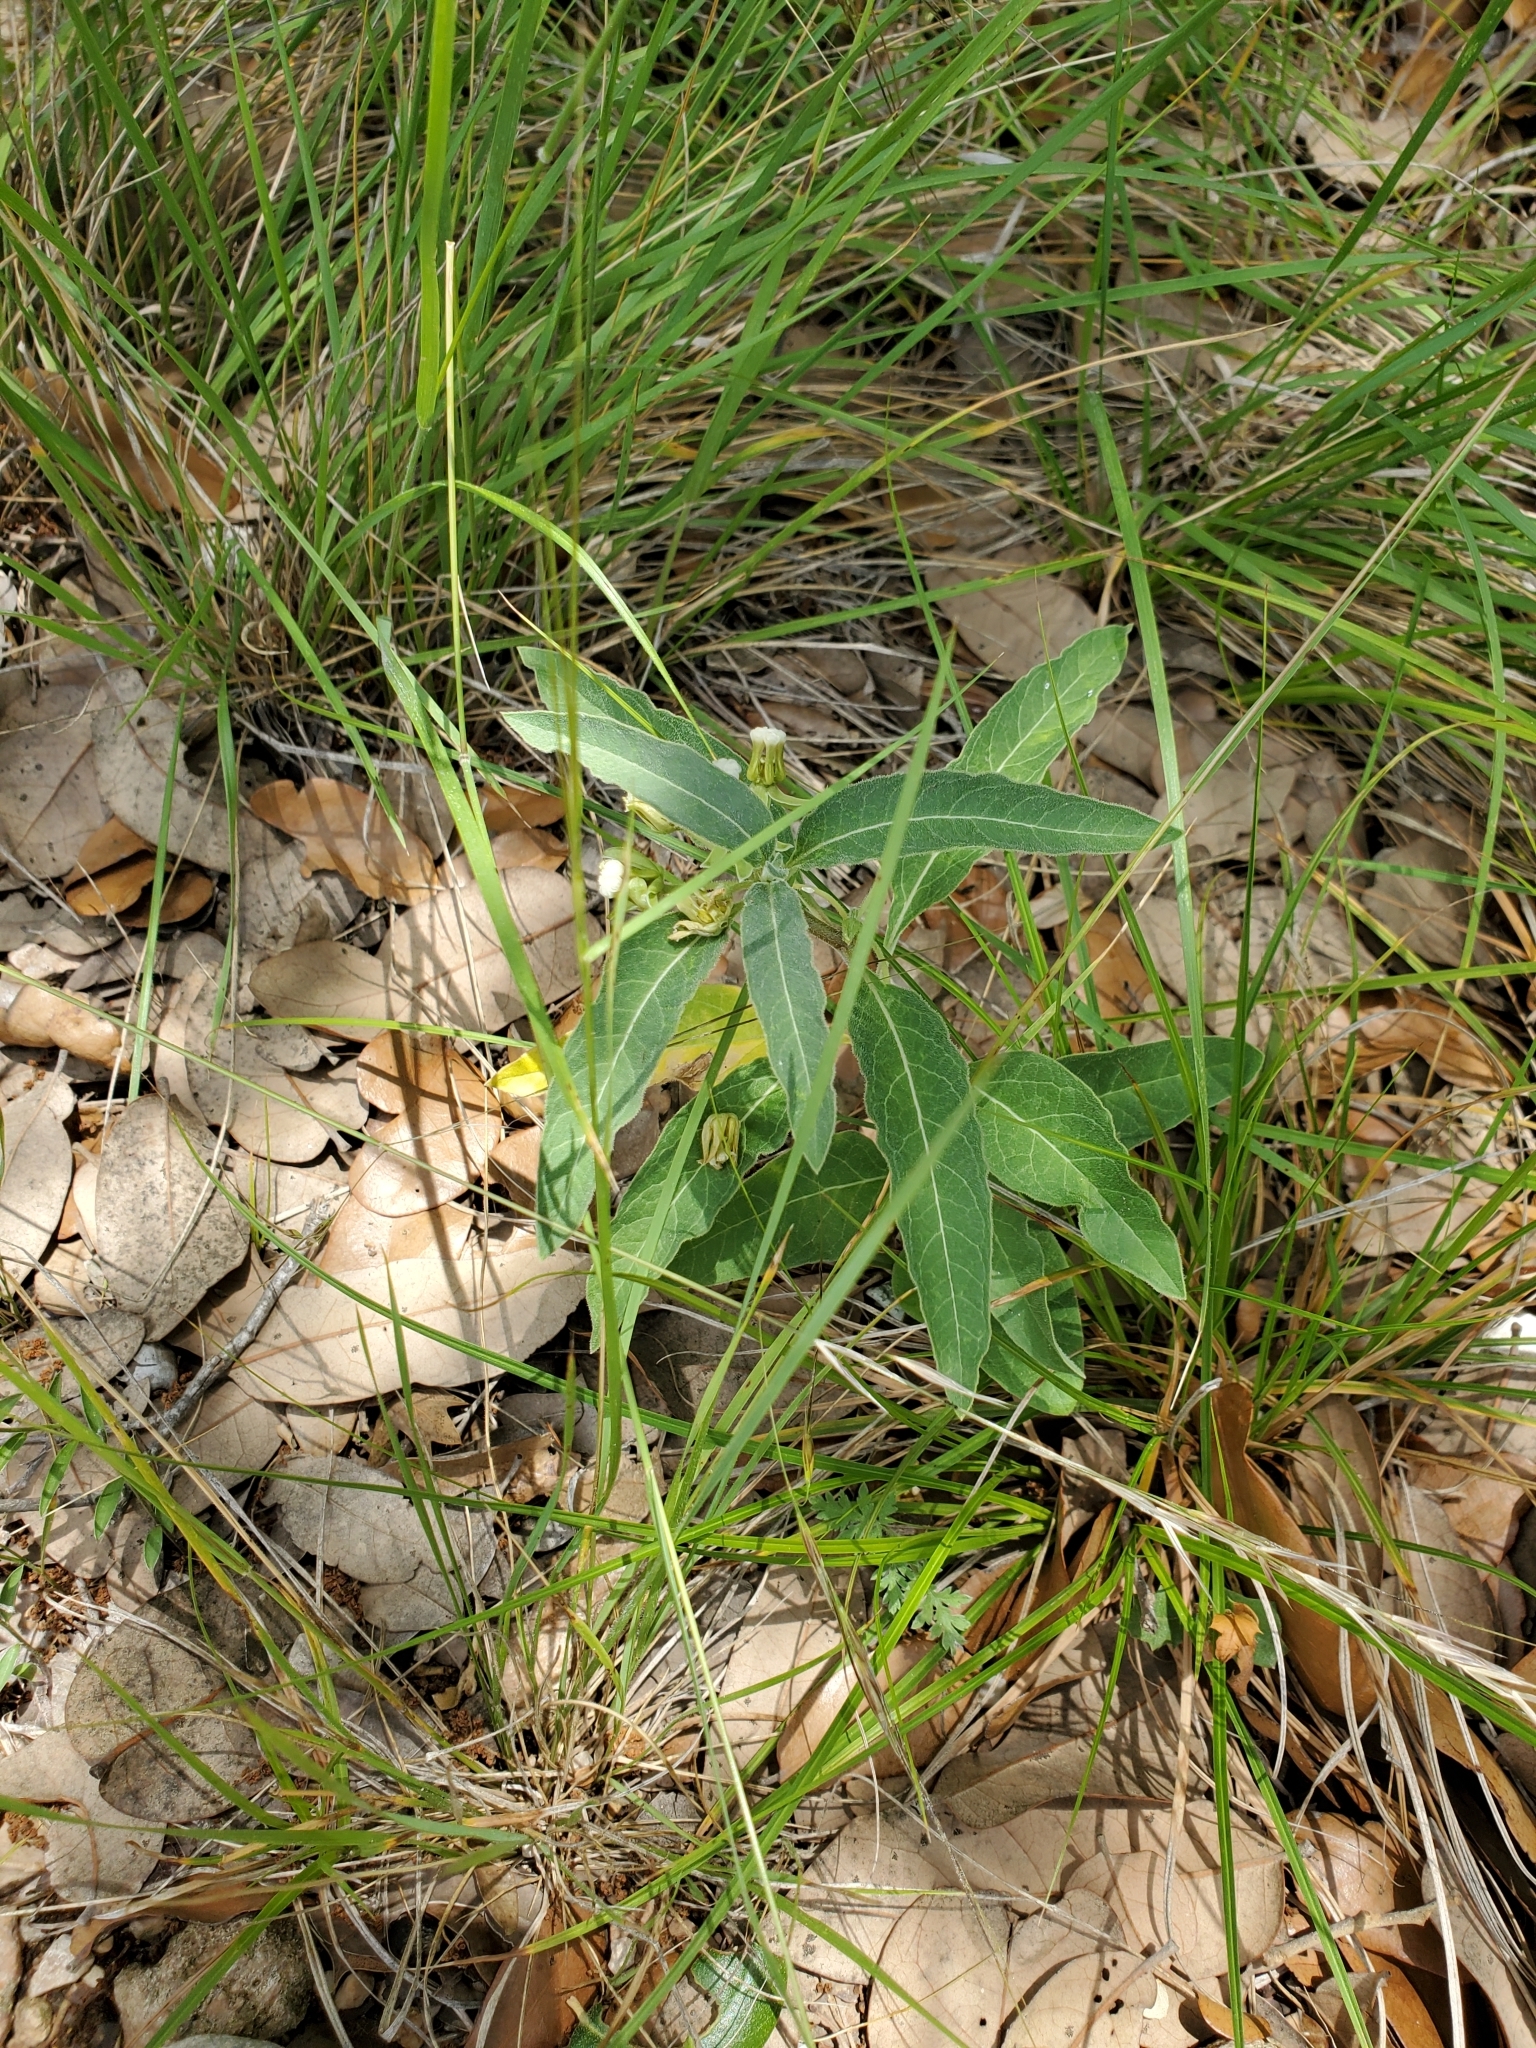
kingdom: Plantae
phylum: Tracheophyta
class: Magnoliopsida
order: Gentianales
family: Apocynaceae
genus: Asclepias
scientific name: Asclepias emoryi
